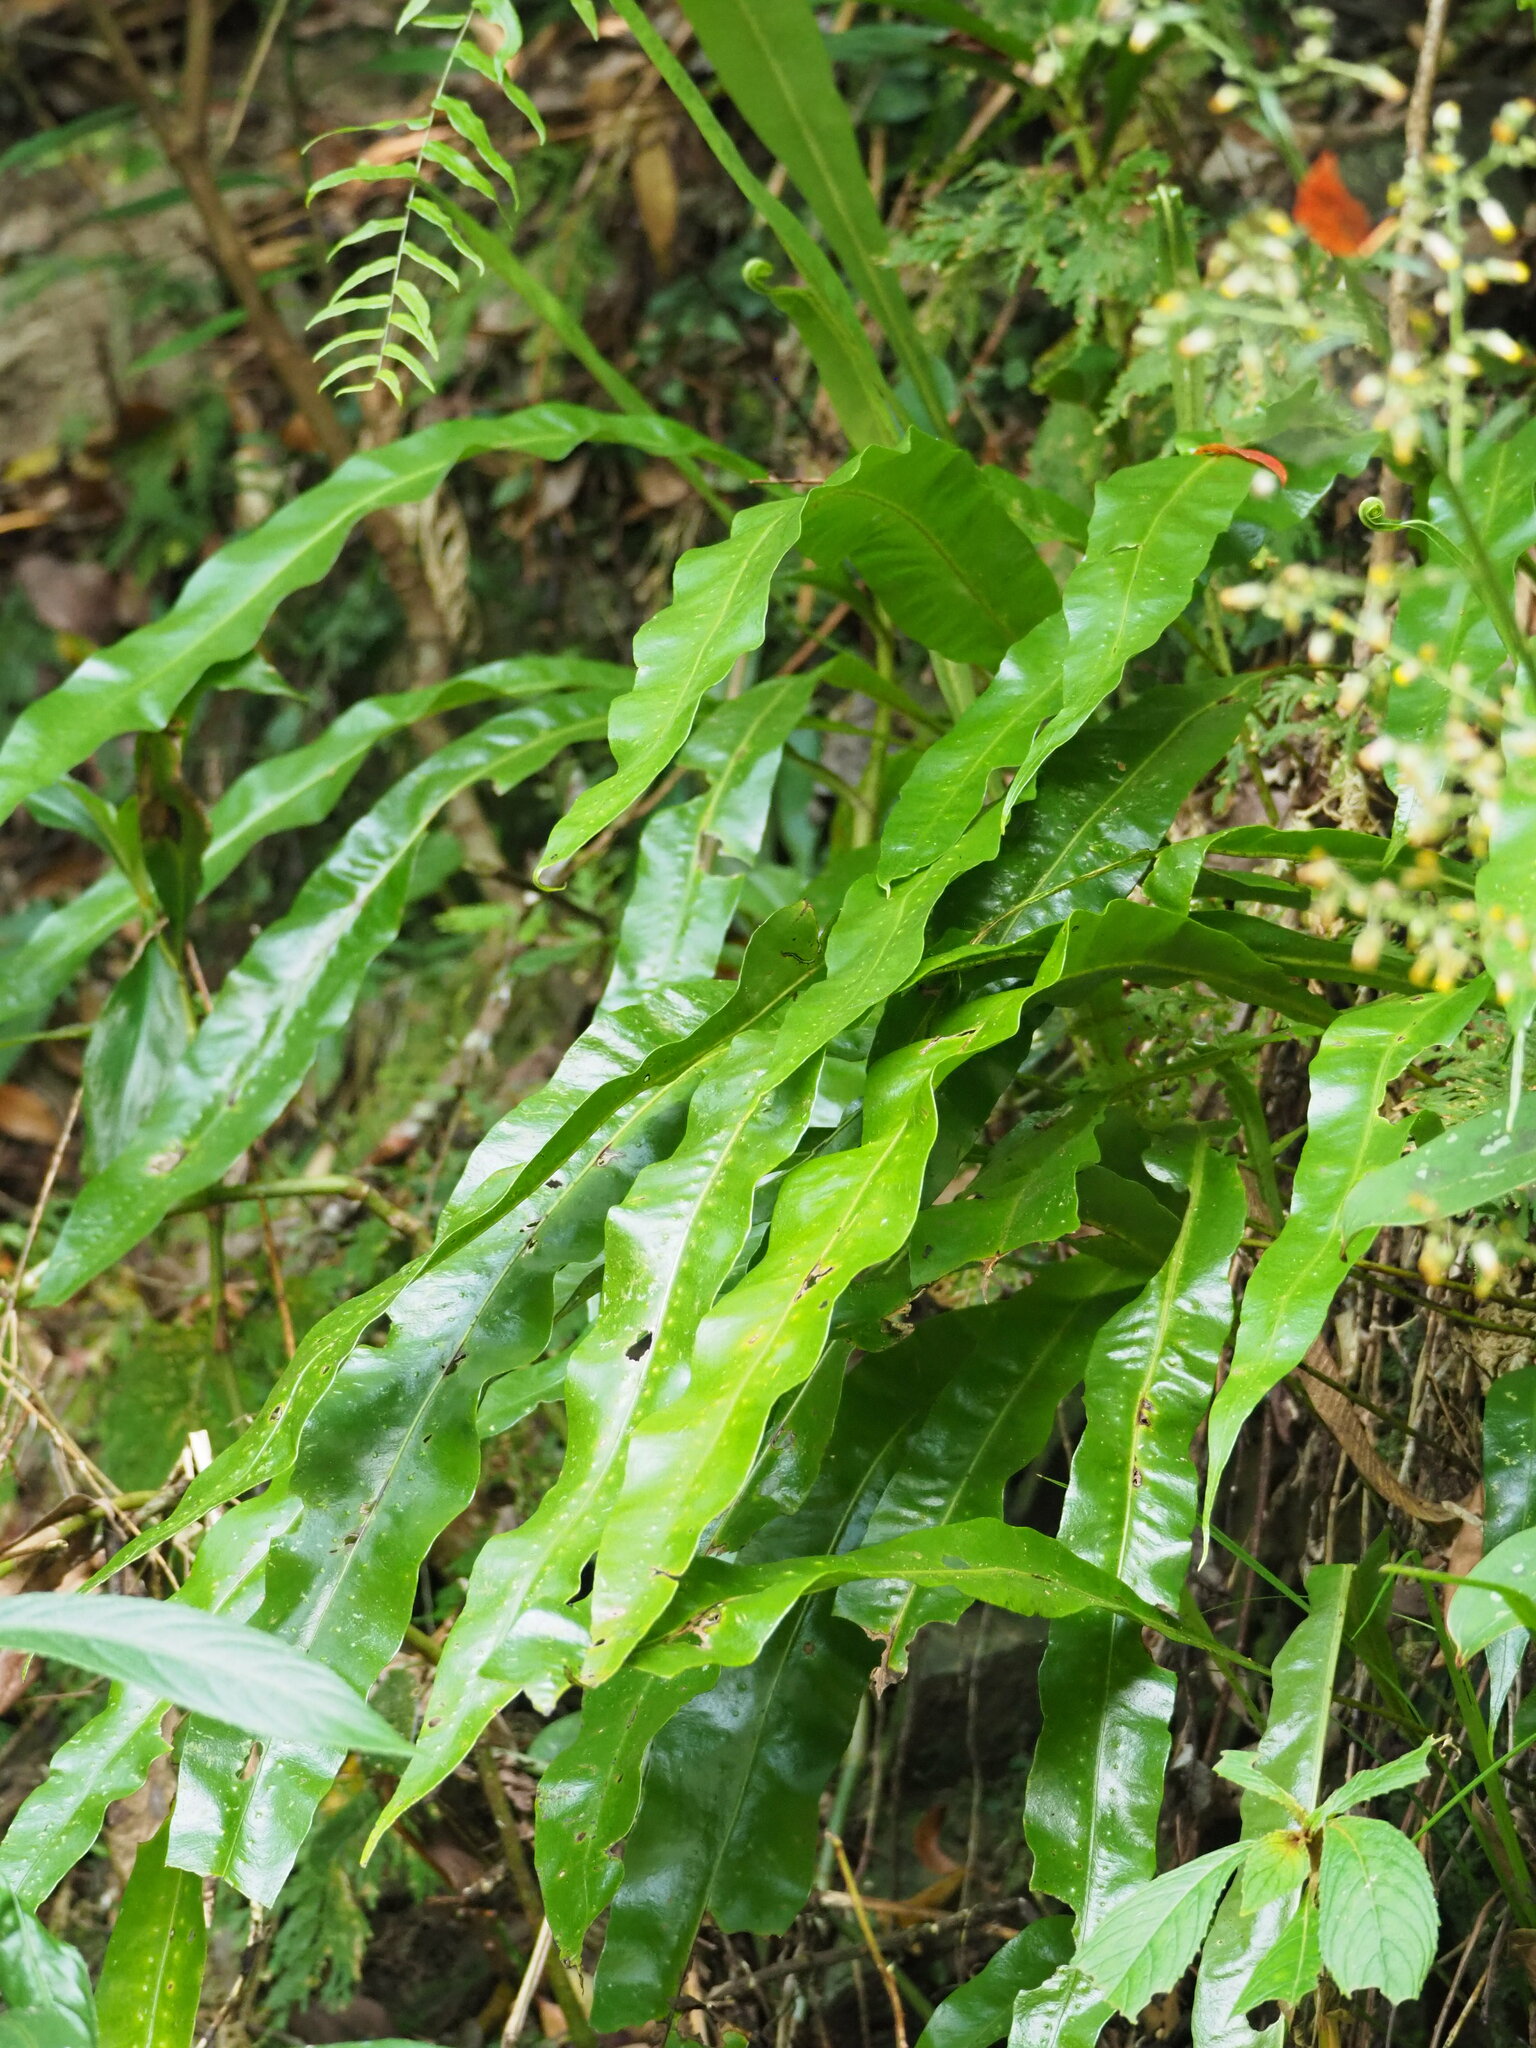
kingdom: Plantae
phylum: Tracheophyta
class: Polypodiopsida
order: Polypodiales
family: Polypodiaceae
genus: Lepisorus
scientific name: Lepisorus fortuni
